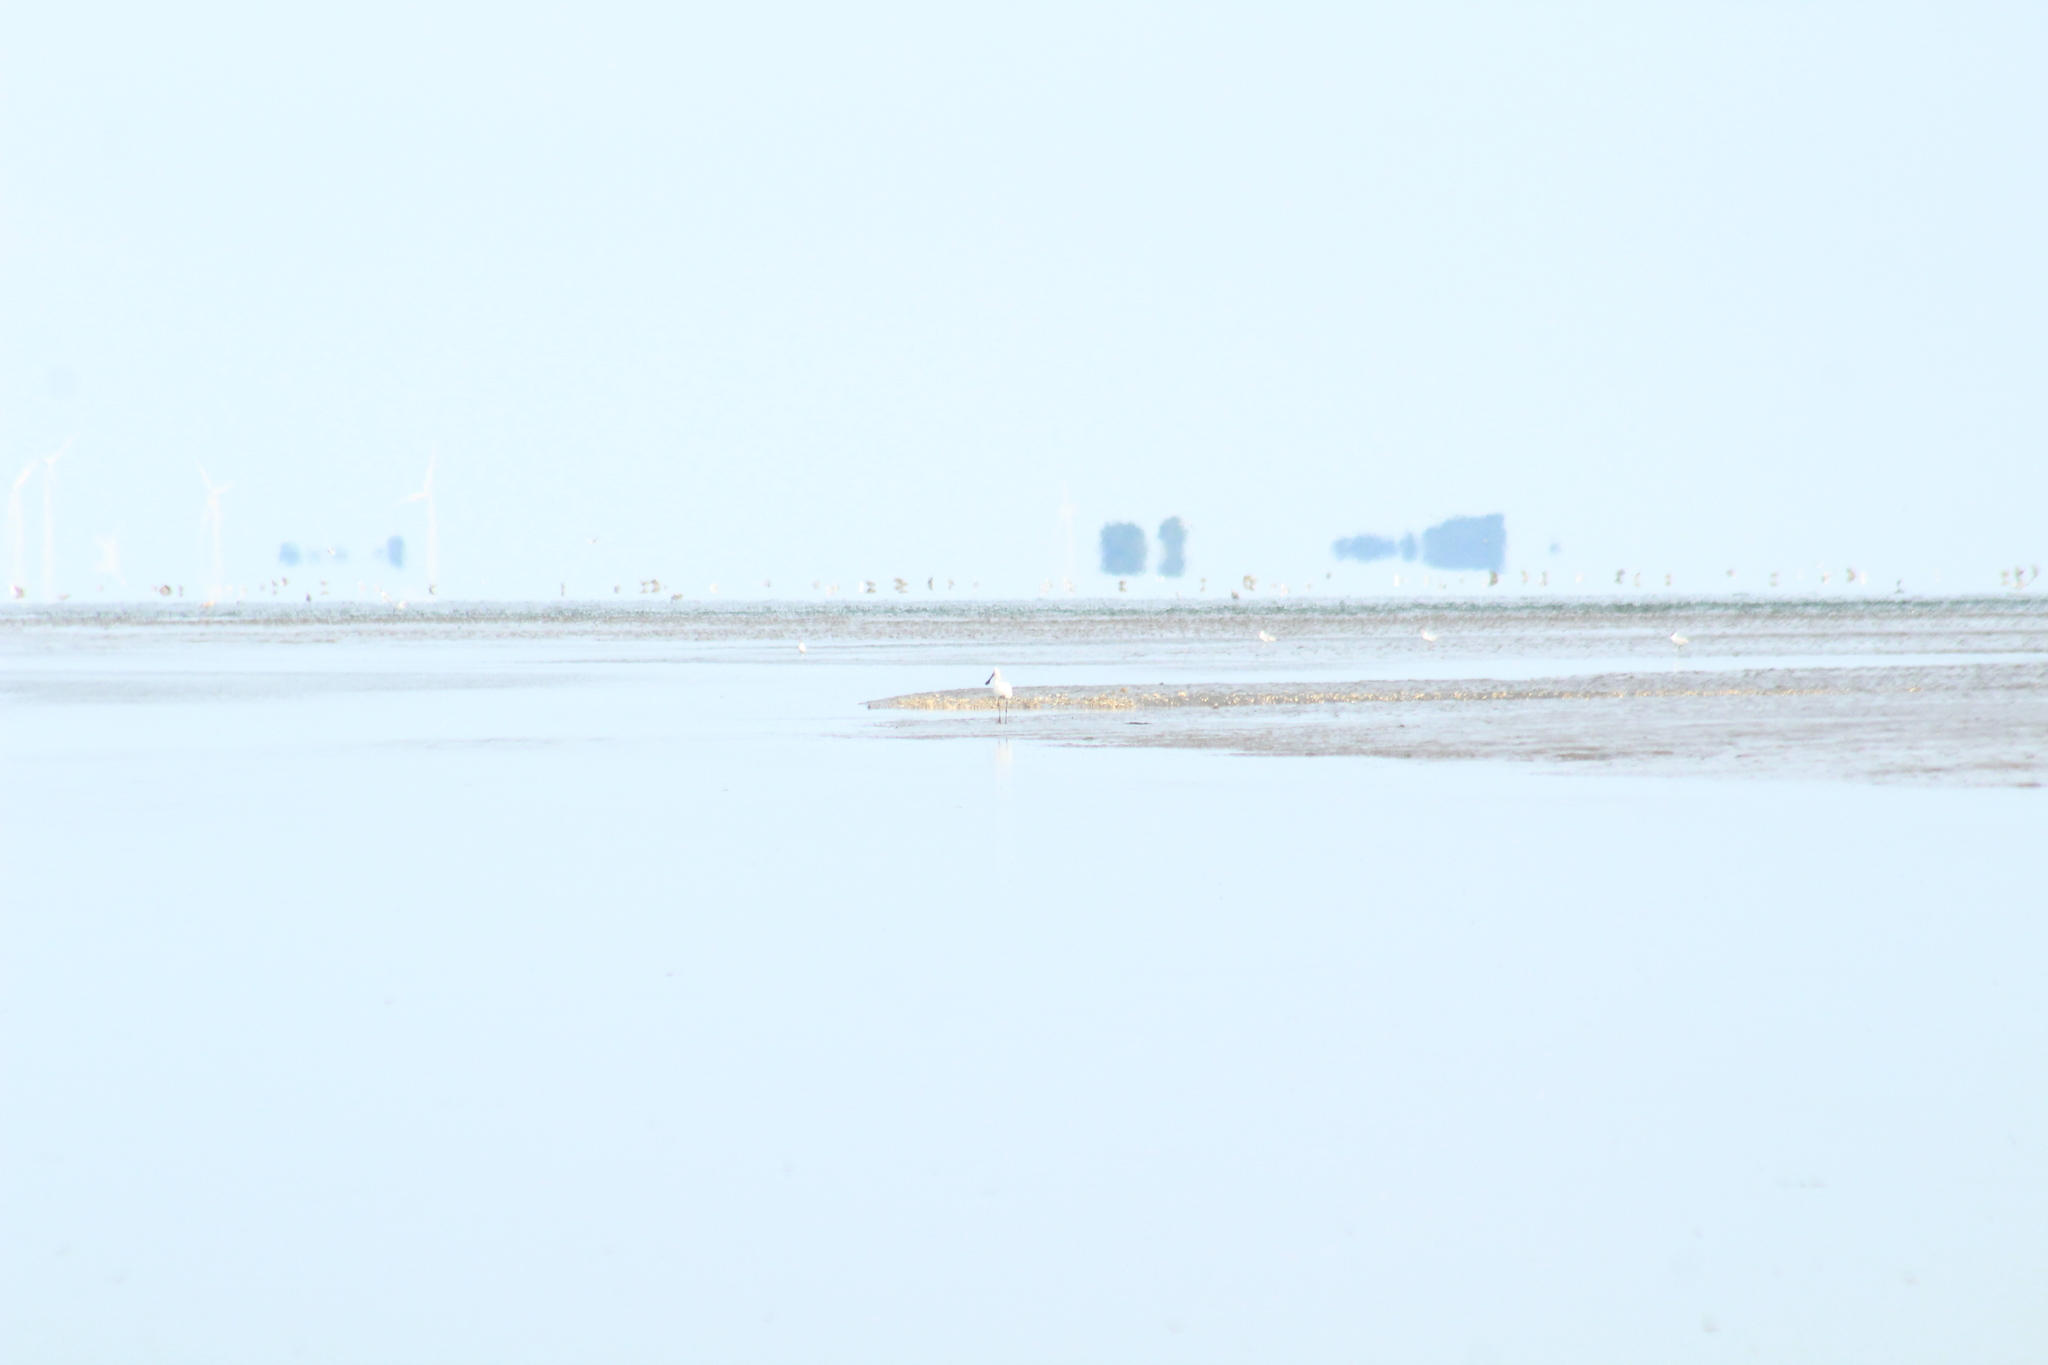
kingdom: Animalia
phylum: Chordata
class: Aves
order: Pelecaniformes
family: Threskiornithidae
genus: Platalea
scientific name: Platalea leucorodia
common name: Eurasian spoonbill
